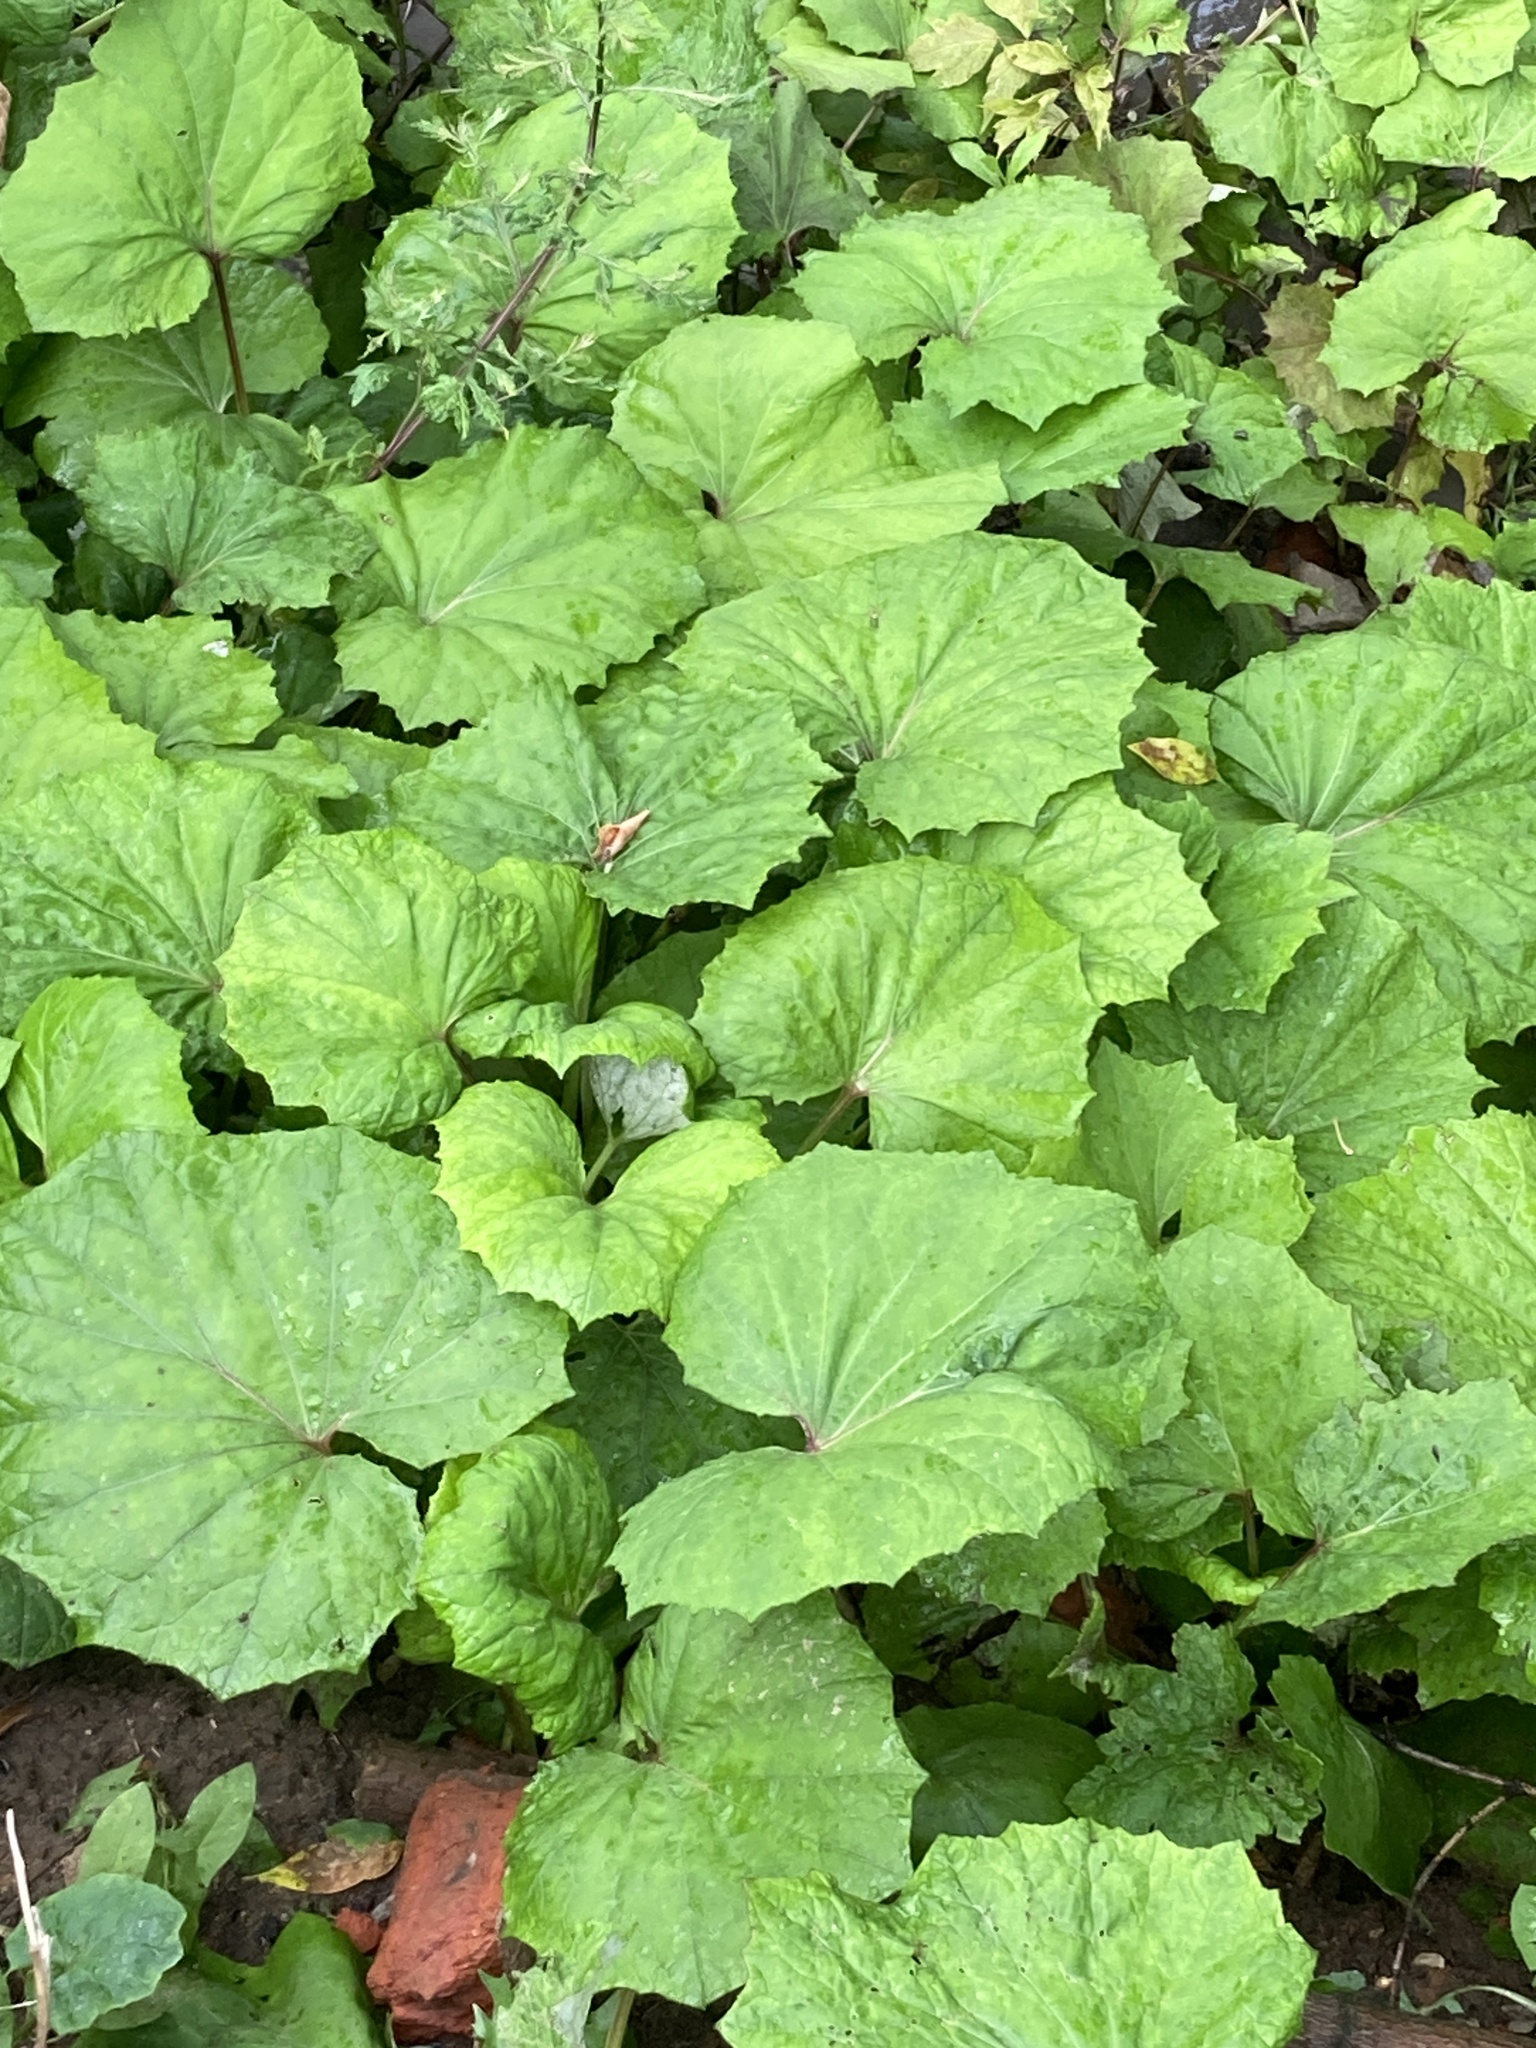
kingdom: Plantae
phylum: Tracheophyta
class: Magnoliopsida
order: Asterales
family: Asteraceae
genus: Tussilago
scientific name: Tussilago farfara
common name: Coltsfoot
